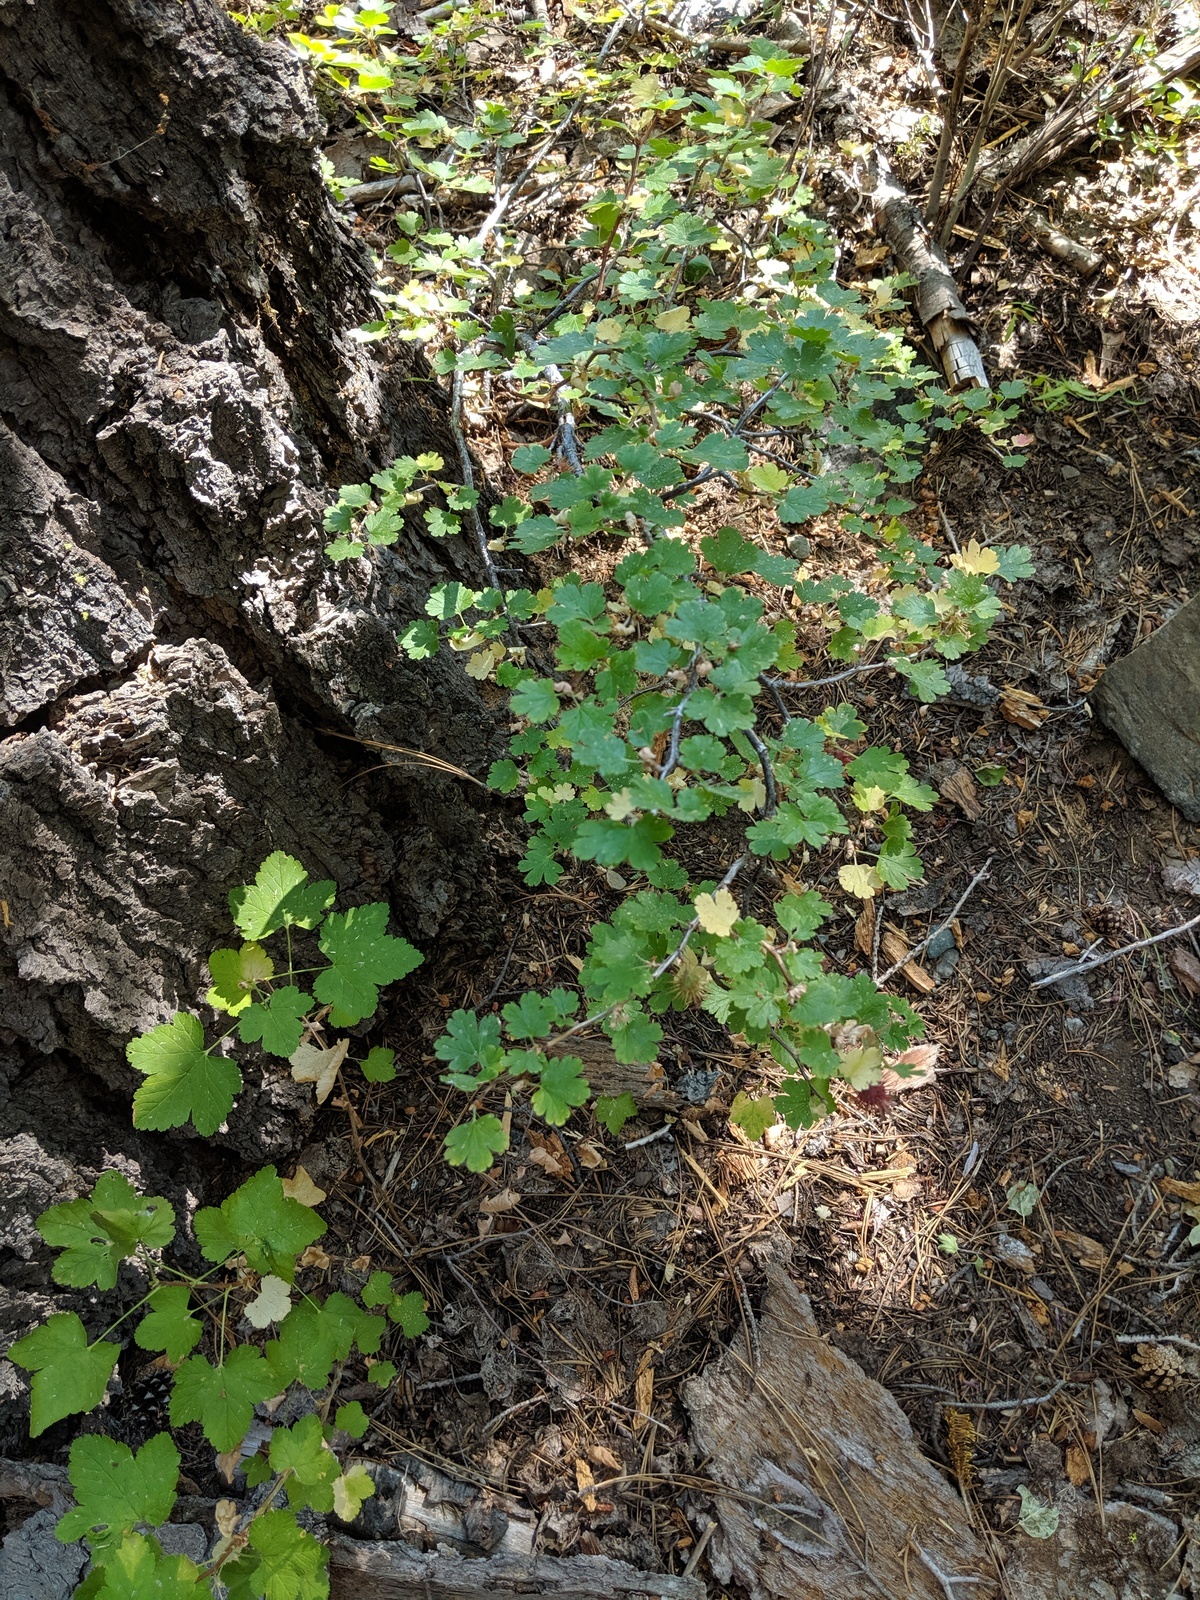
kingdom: Plantae
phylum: Tracheophyta
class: Magnoliopsida
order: Saxifragales
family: Grossulariaceae
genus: Ribes
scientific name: Ribes roezlii
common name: Sierra gooseberry
